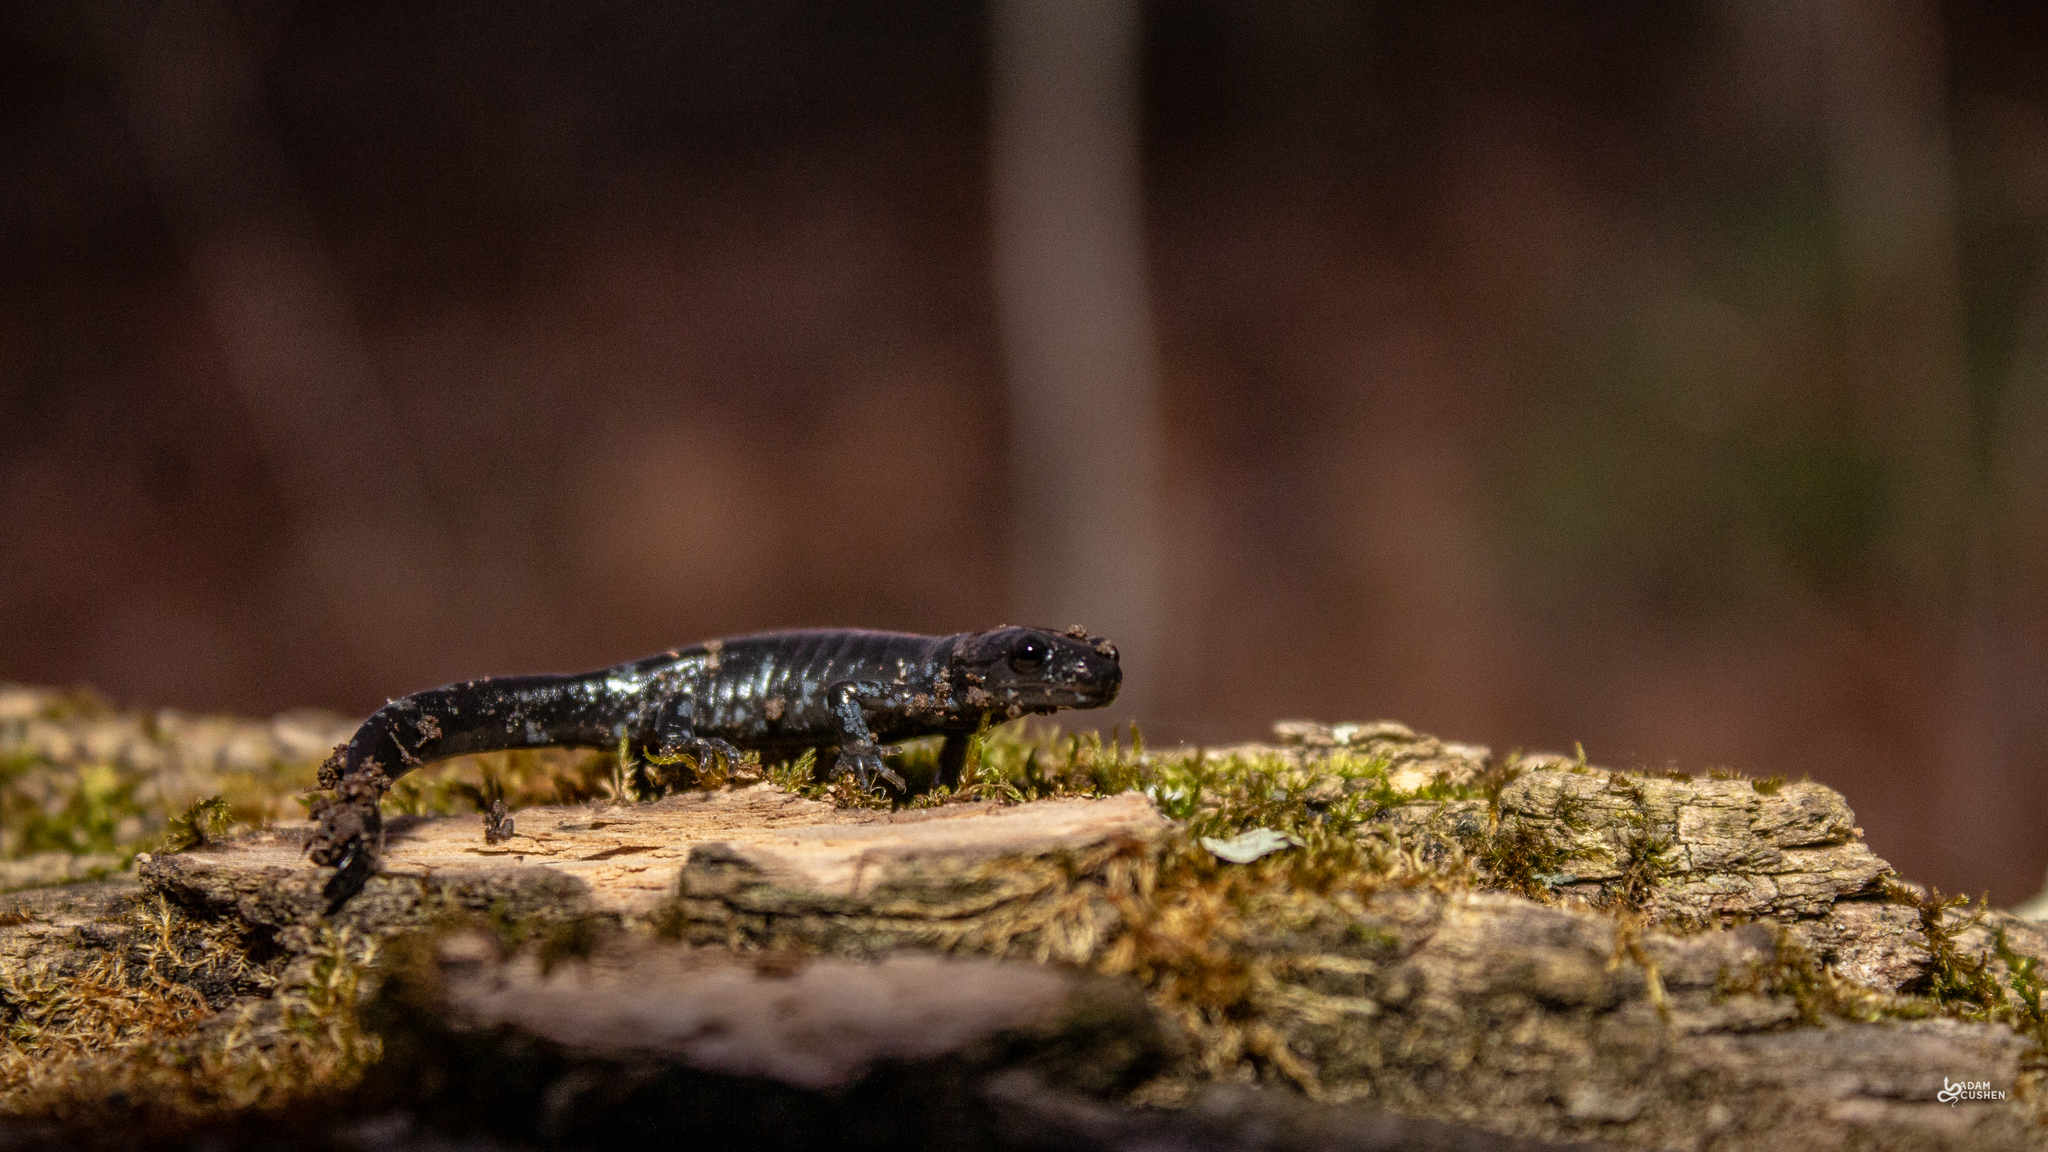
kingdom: Animalia
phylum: Chordata
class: Amphibia
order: Caudata
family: Ambystomatidae
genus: Ambystoma
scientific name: Ambystoma laterale
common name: Blue-spotted salamander
